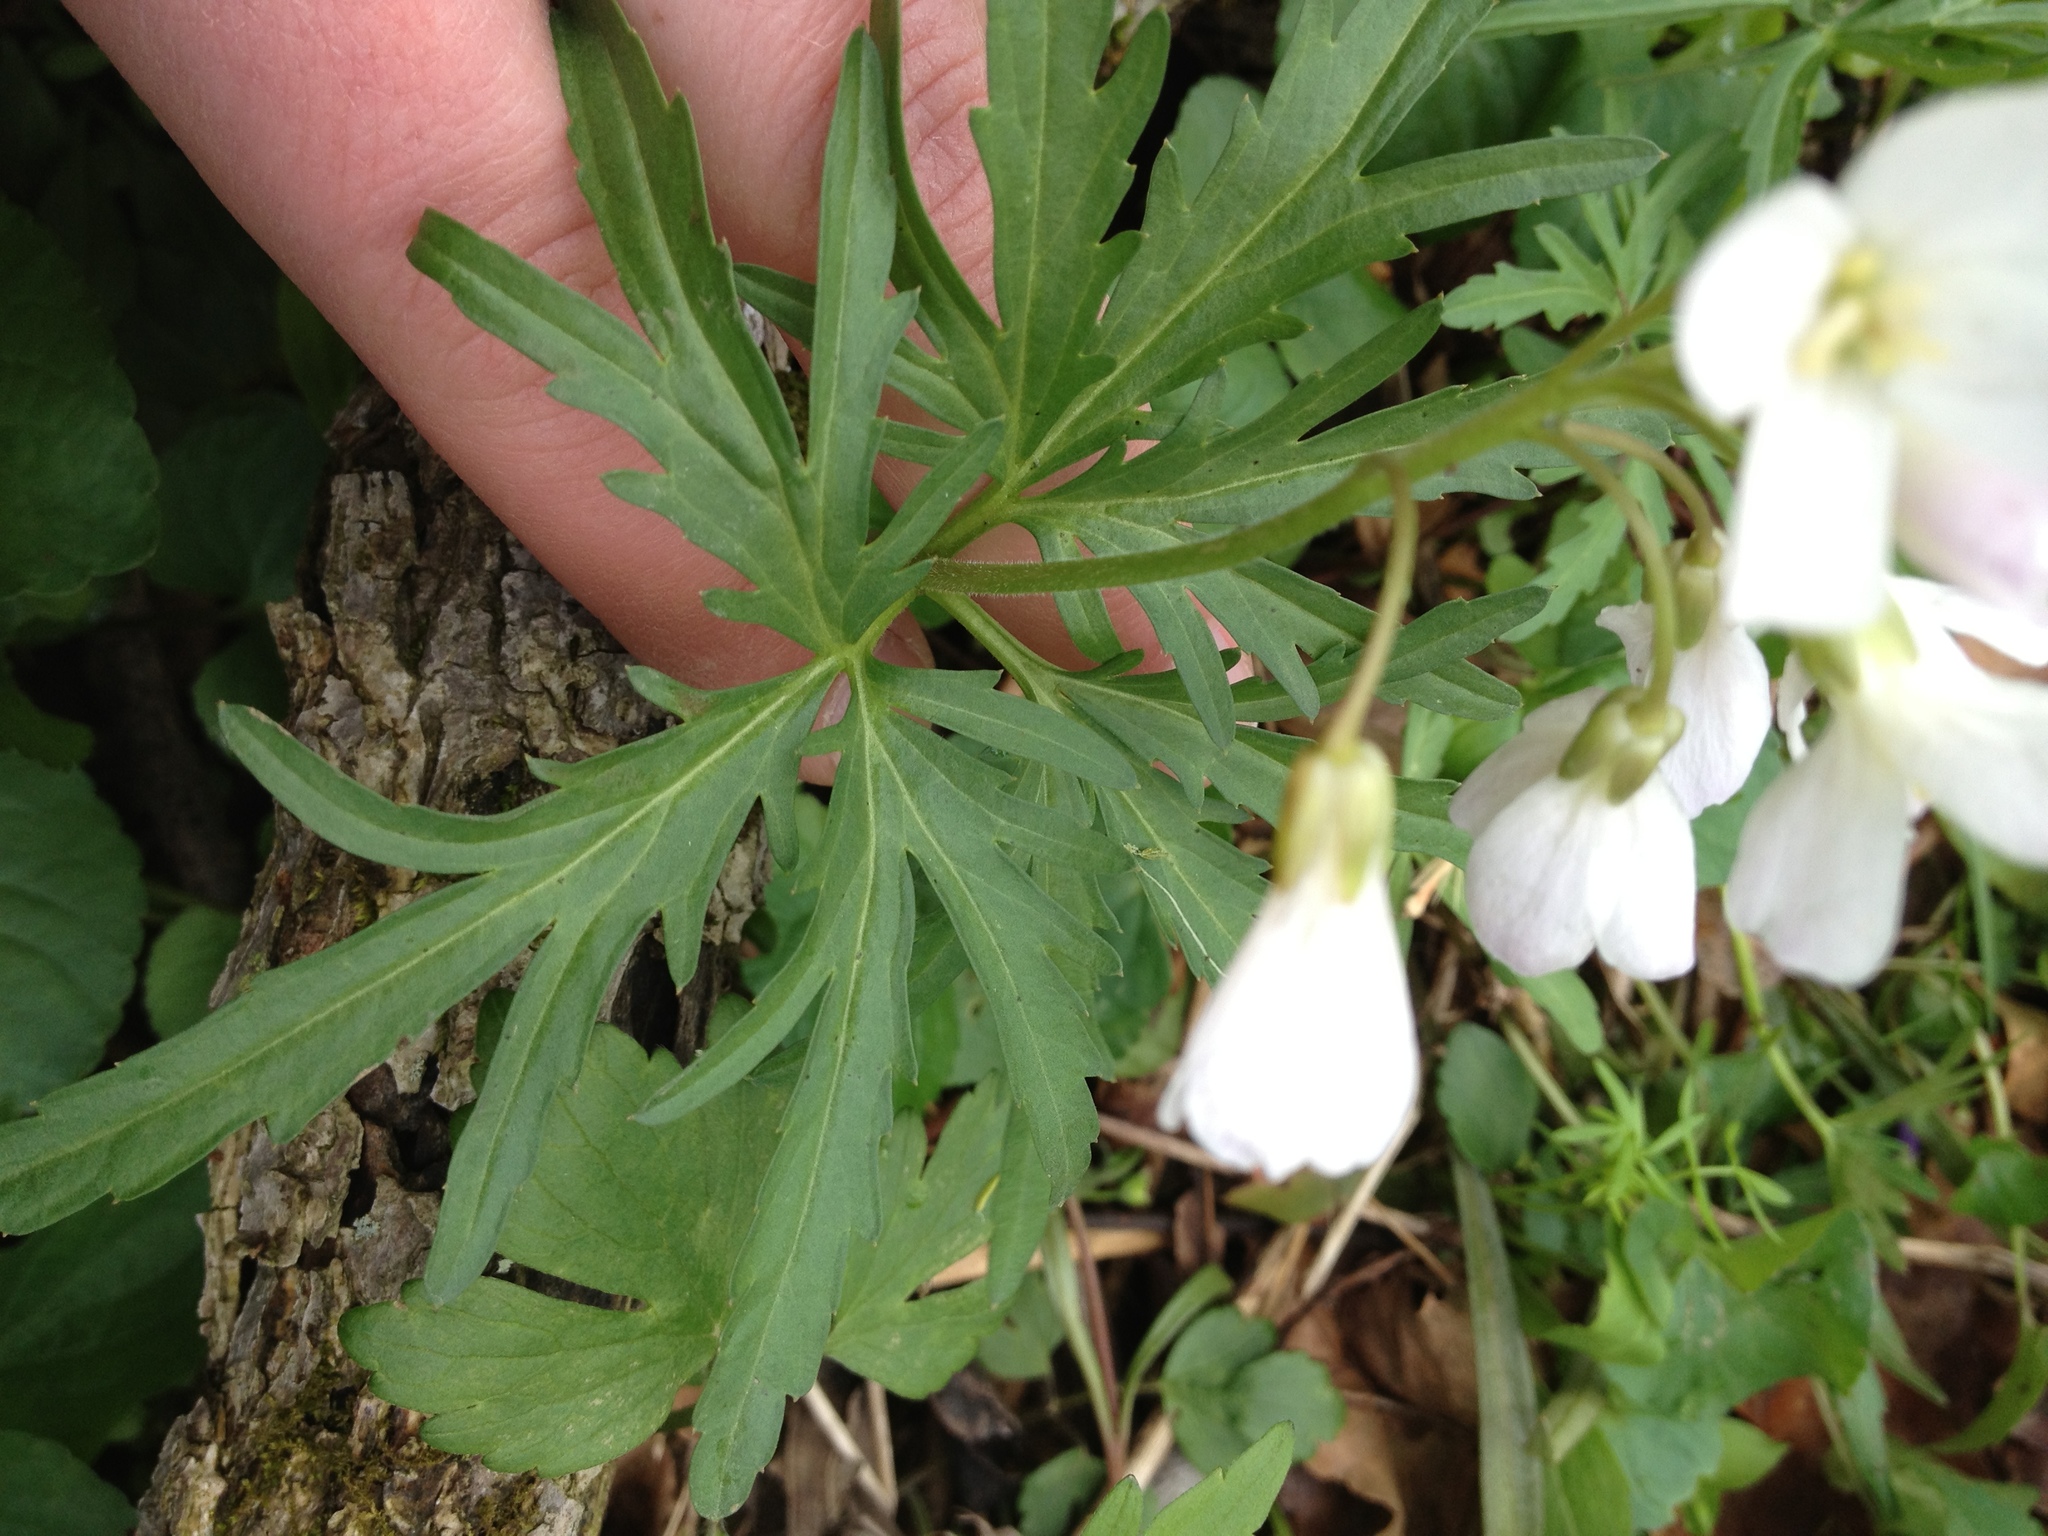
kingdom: Plantae
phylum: Tracheophyta
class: Magnoliopsida
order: Brassicales
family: Brassicaceae
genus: Cardamine
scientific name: Cardamine concatenata
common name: Cut-leaf toothcup
